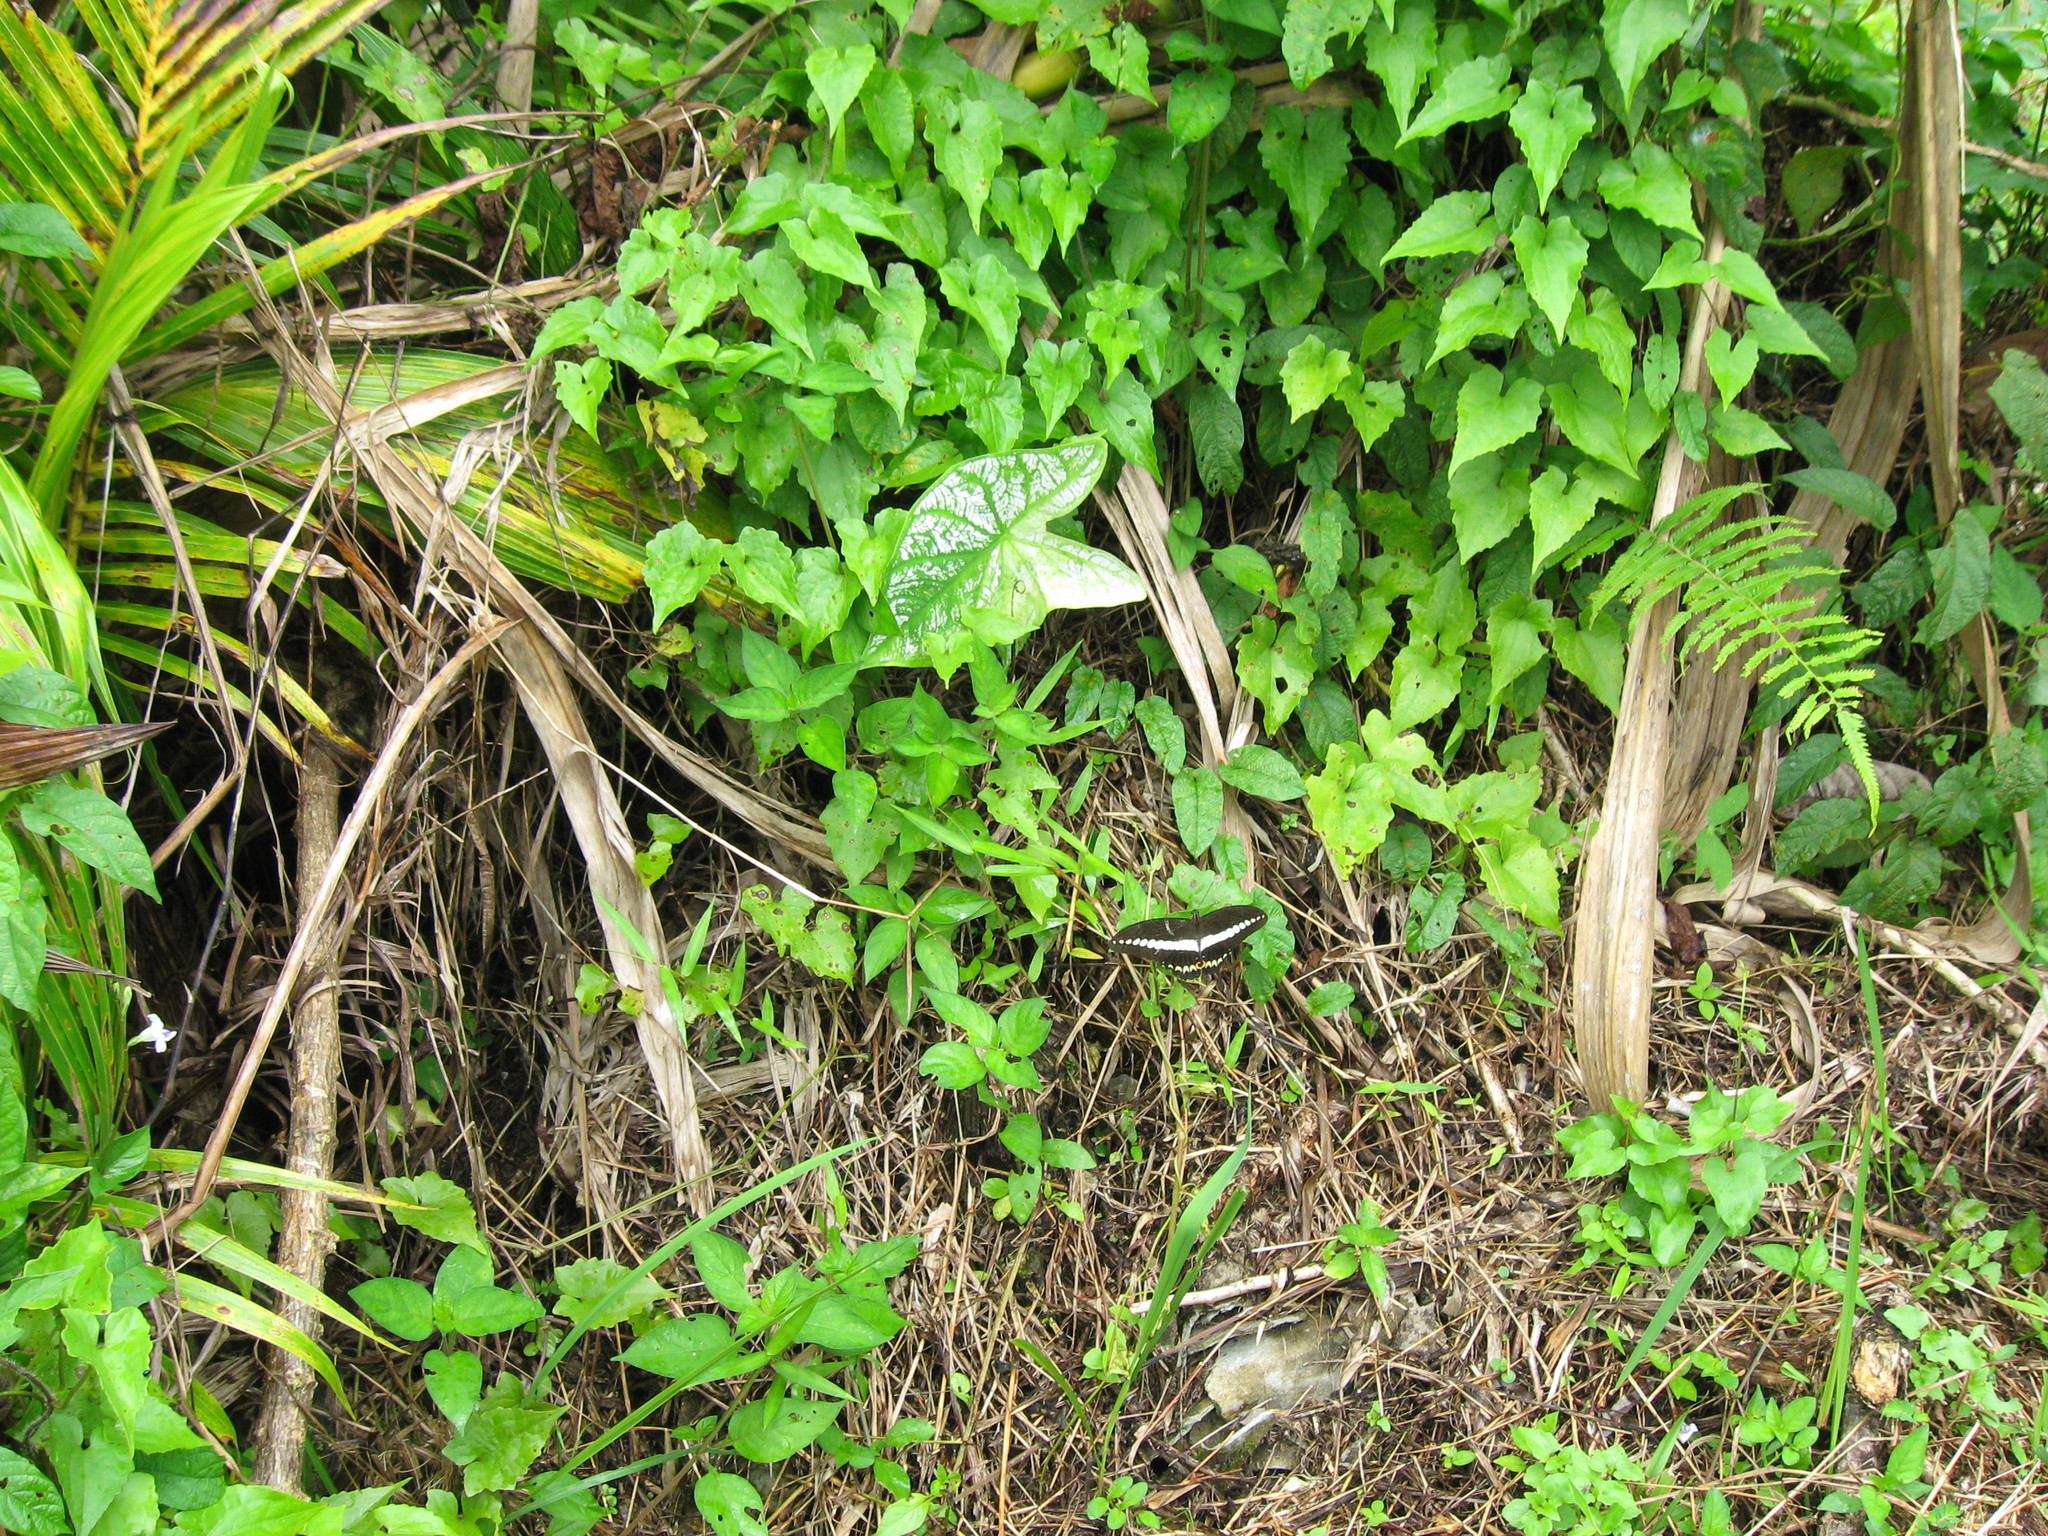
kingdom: Animalia
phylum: Arthropoda
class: Insecta
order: Lepidoptera
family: Papilionidae
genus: Papilio
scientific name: Papilio demolion
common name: Banded swallowtail
